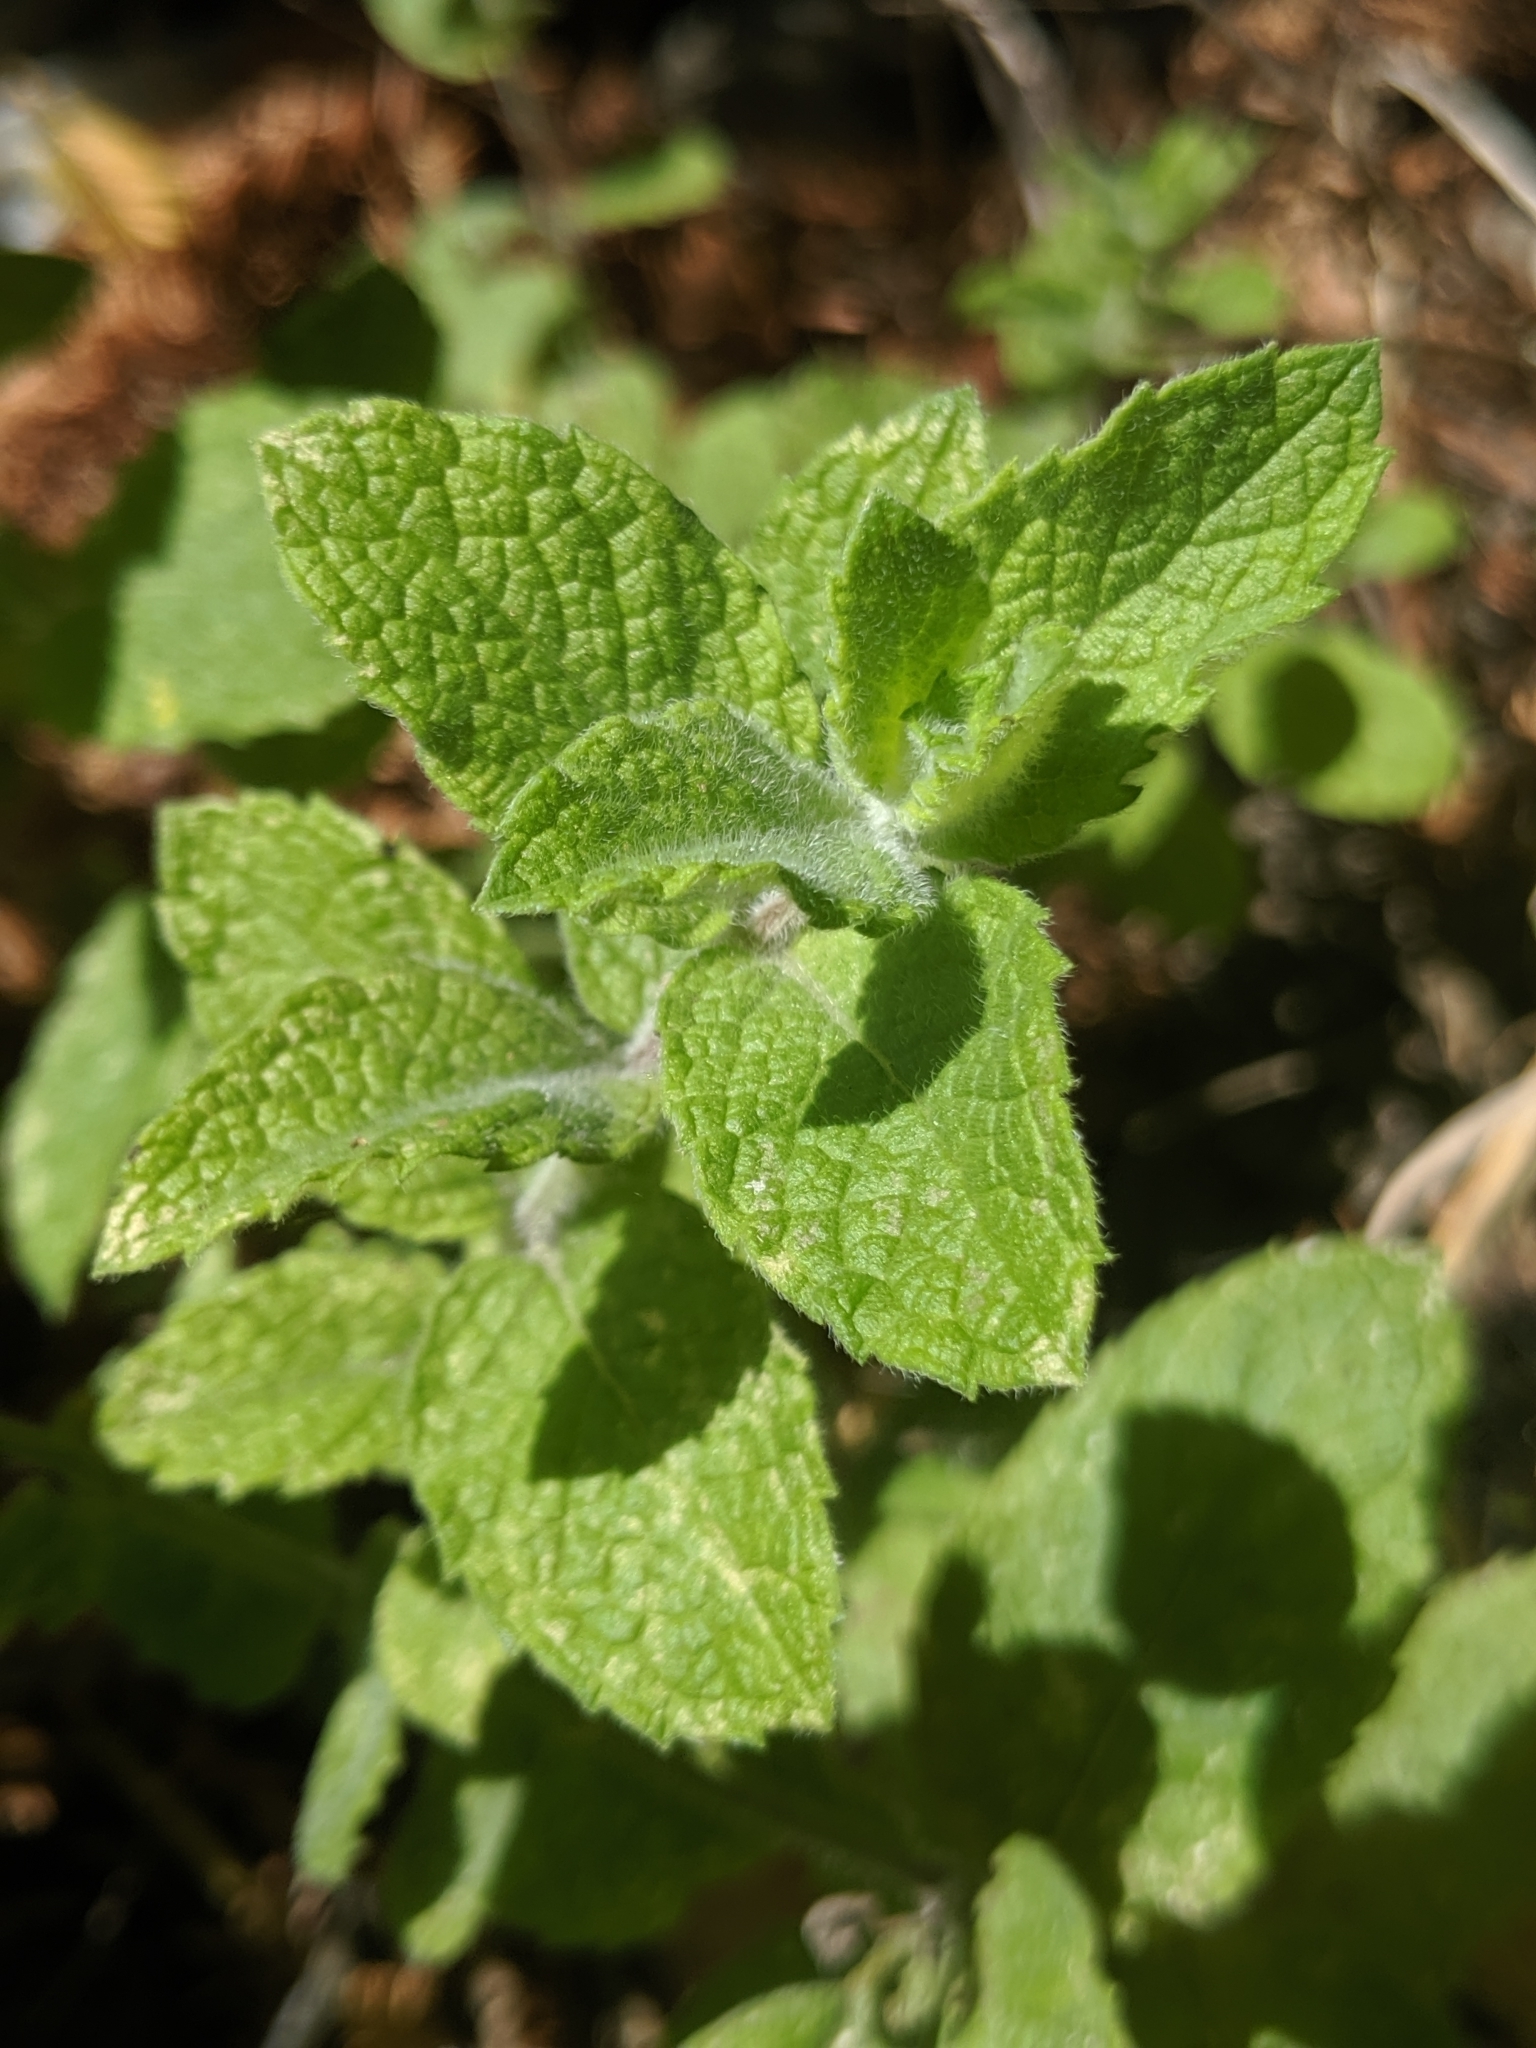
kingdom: Plantae
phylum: Tracheophyta
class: Magnoliopsida
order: Lamiales
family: Lamiaceae
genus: Mentha
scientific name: Mentha suaveolens
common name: Apple mint
